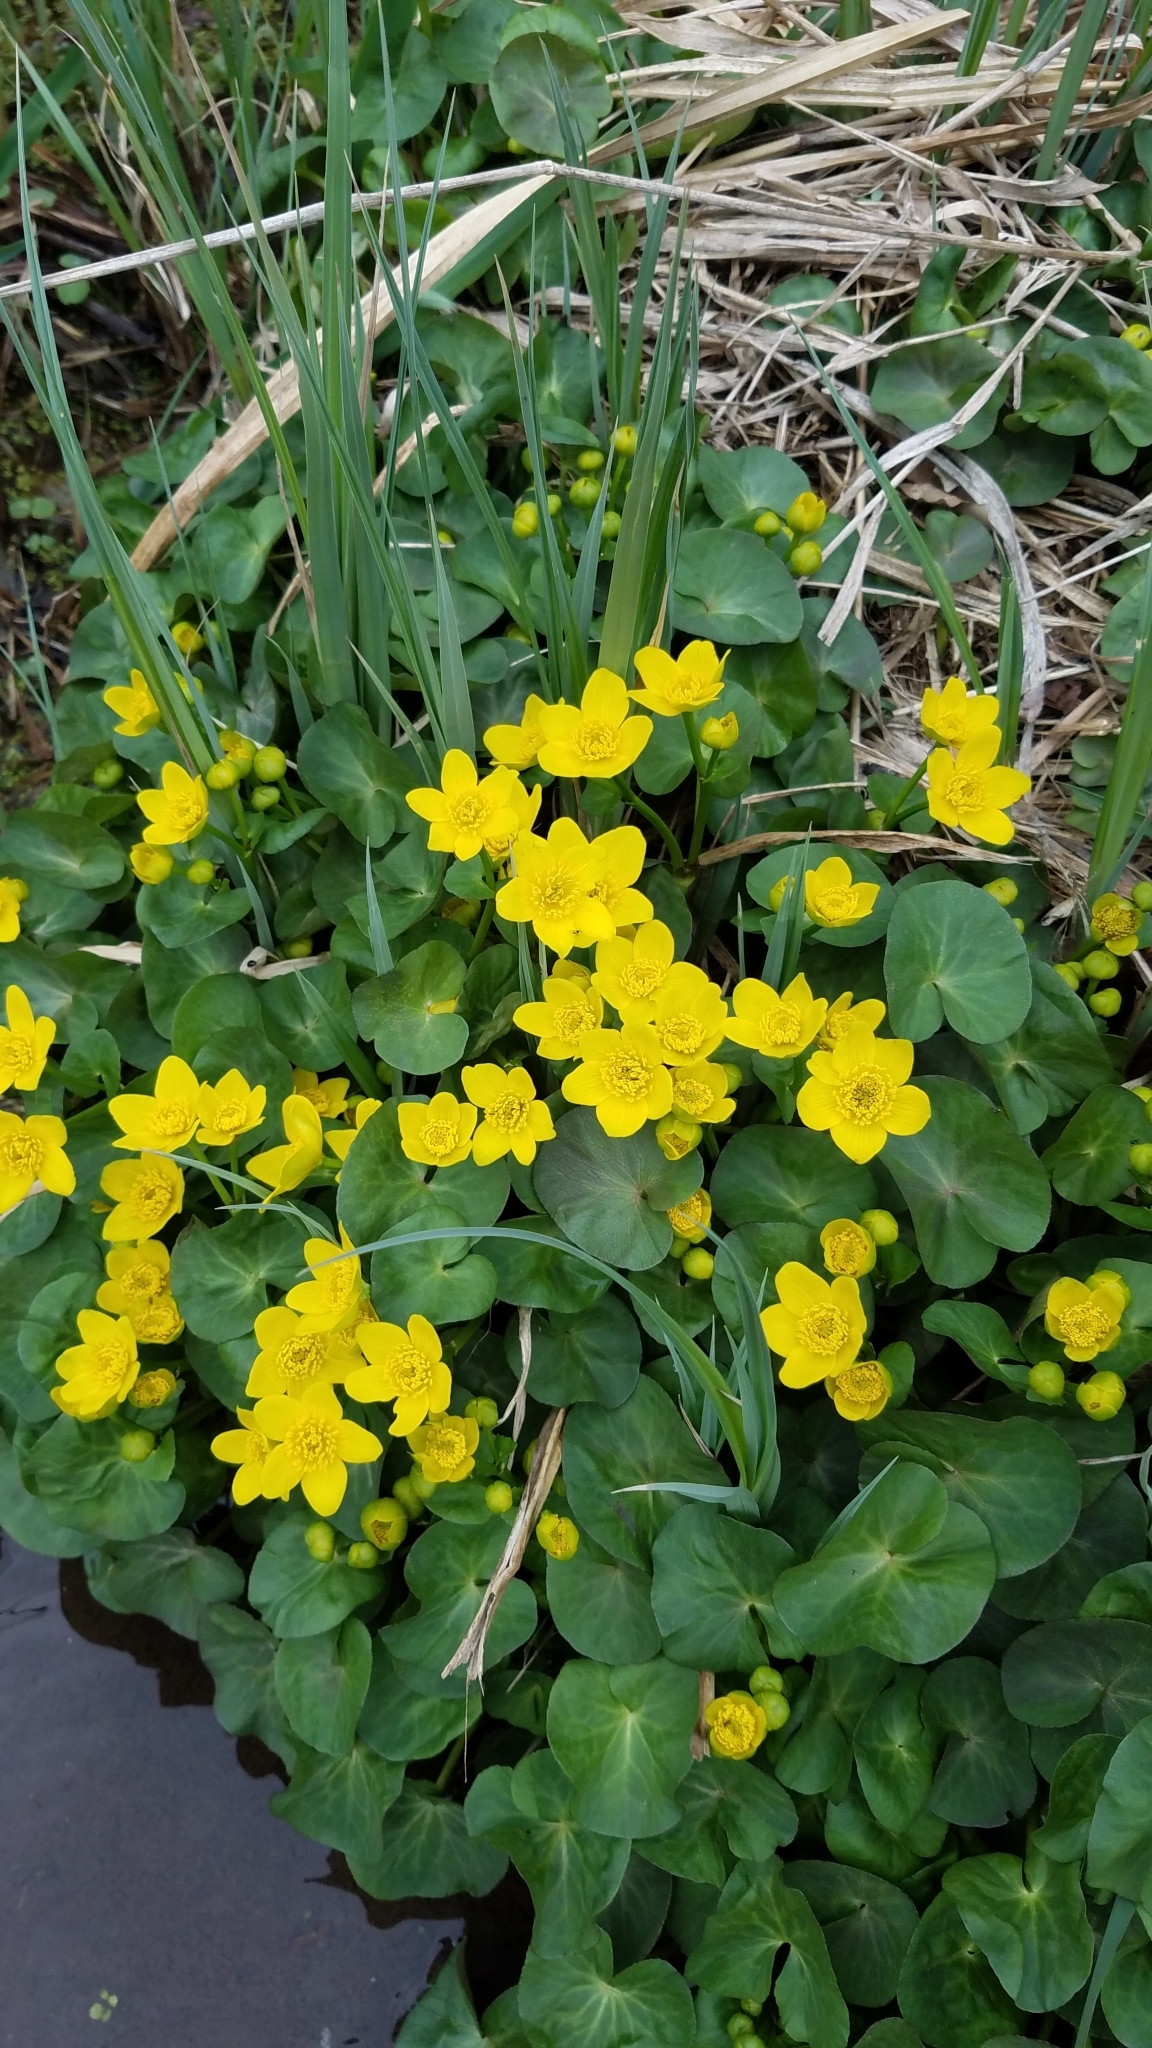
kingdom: Plantae
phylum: Tracheophyta
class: Magnoliopsida
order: Ranunculales
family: Ranunculaceae
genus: Caltha
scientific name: Caltha palustris
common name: Marsh marigold
